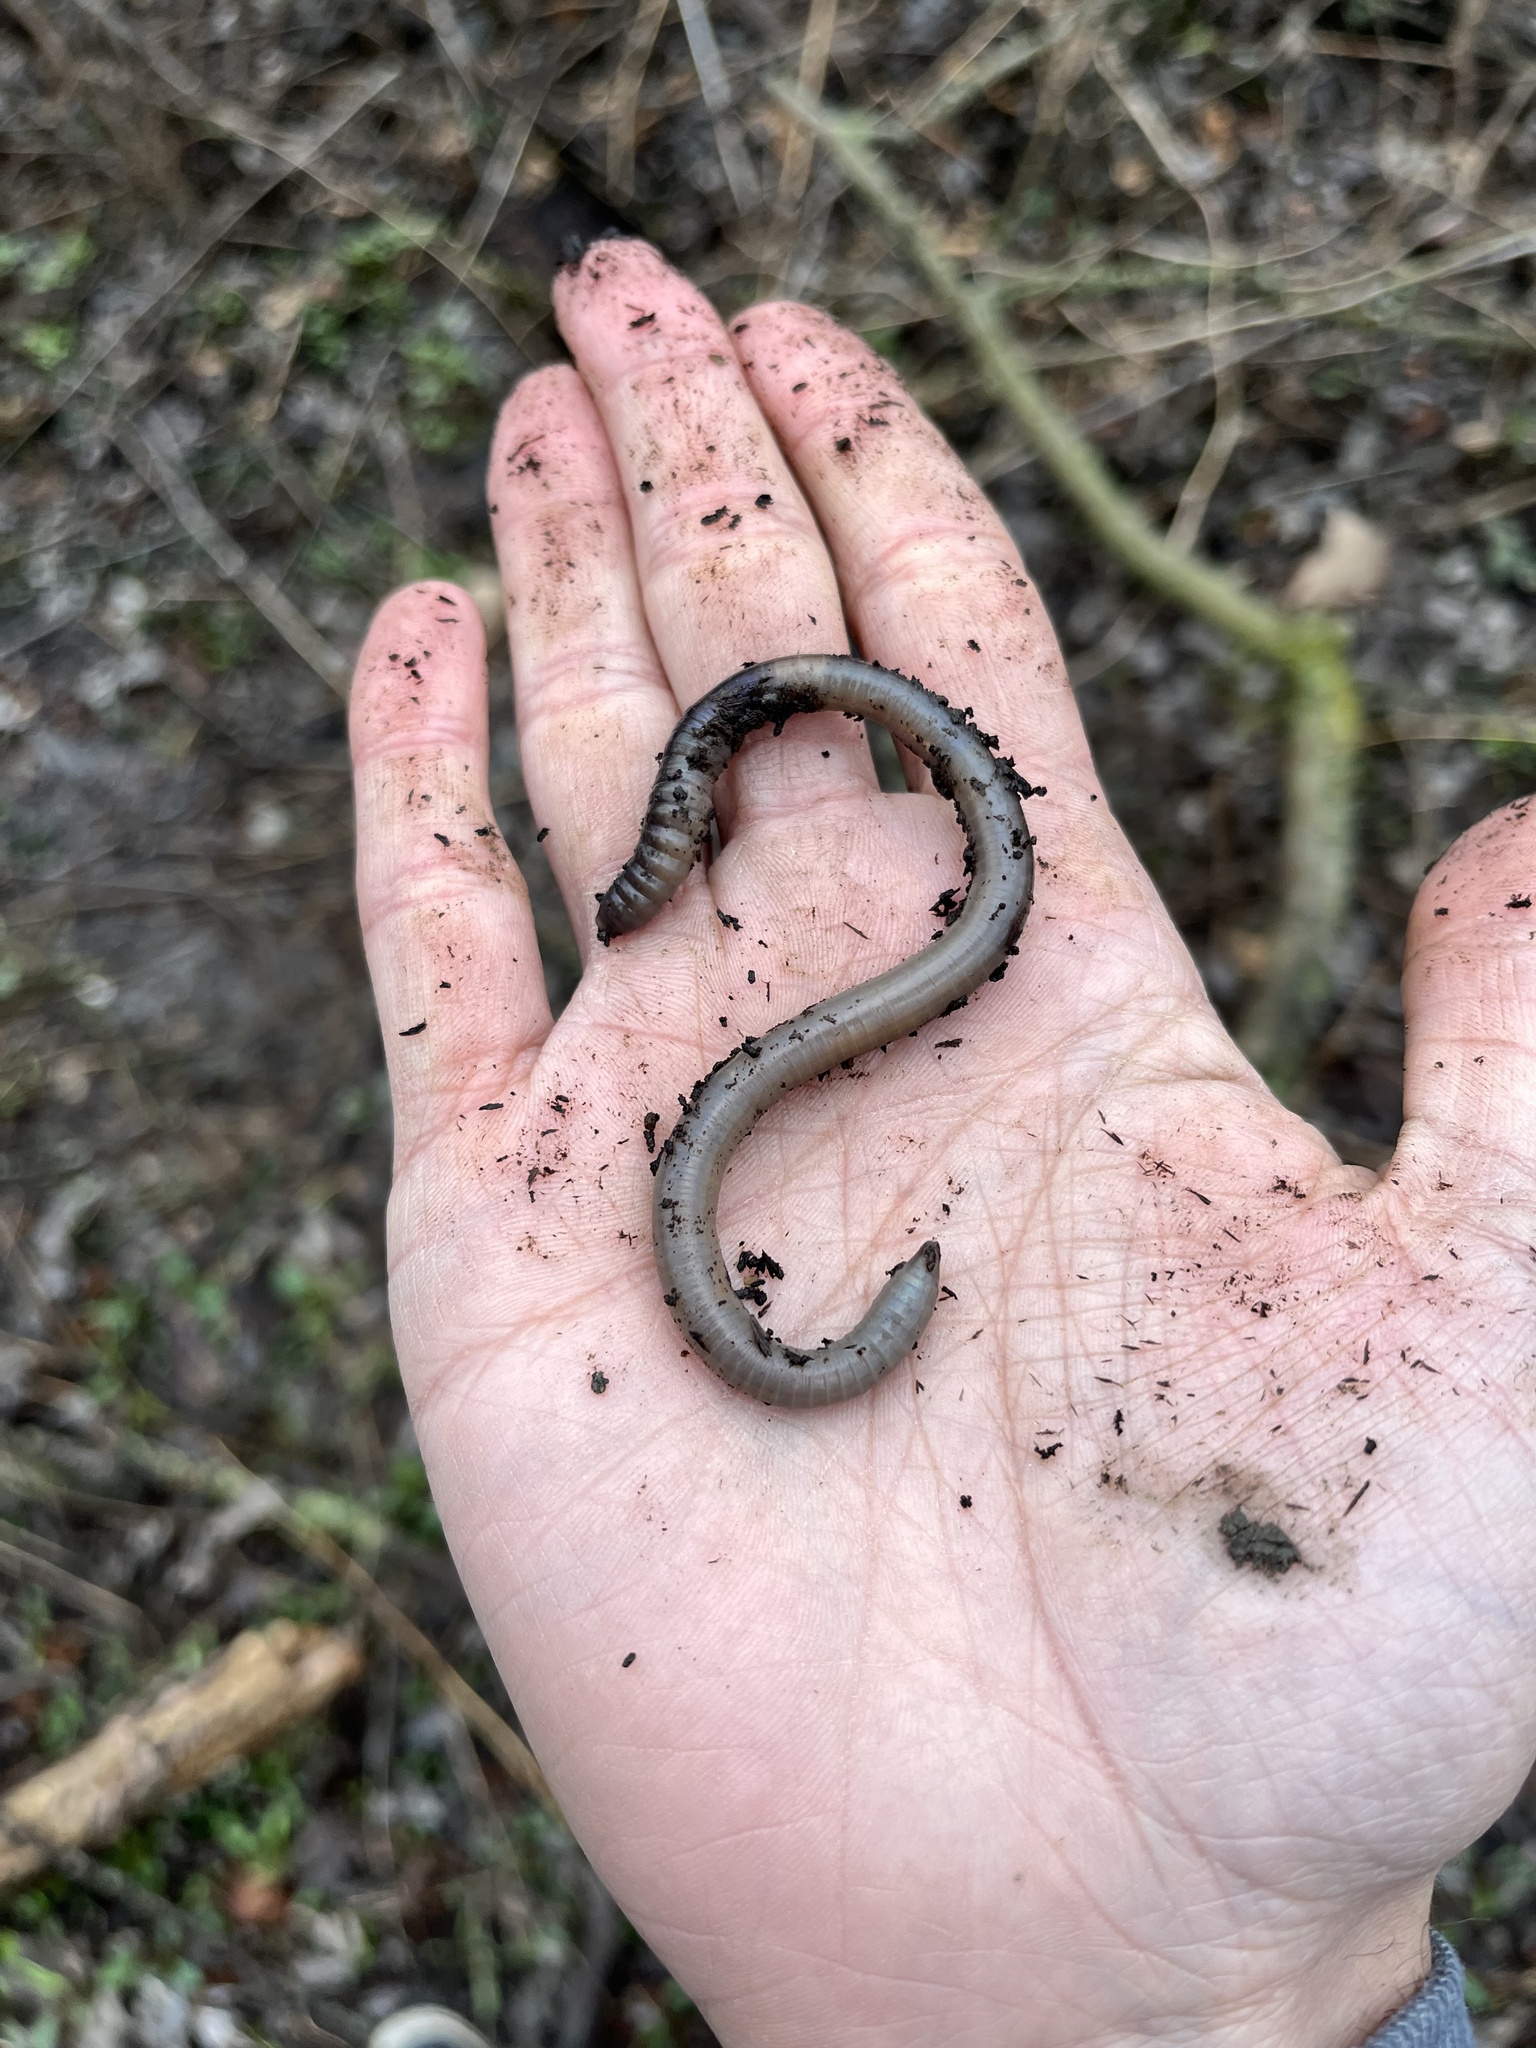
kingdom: Animalia
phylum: Annelida
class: Clitellata
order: Crassiclitellata
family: Lumbricidae
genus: Lumbricus
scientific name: Lumbricus terrestris
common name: Common earthworm
